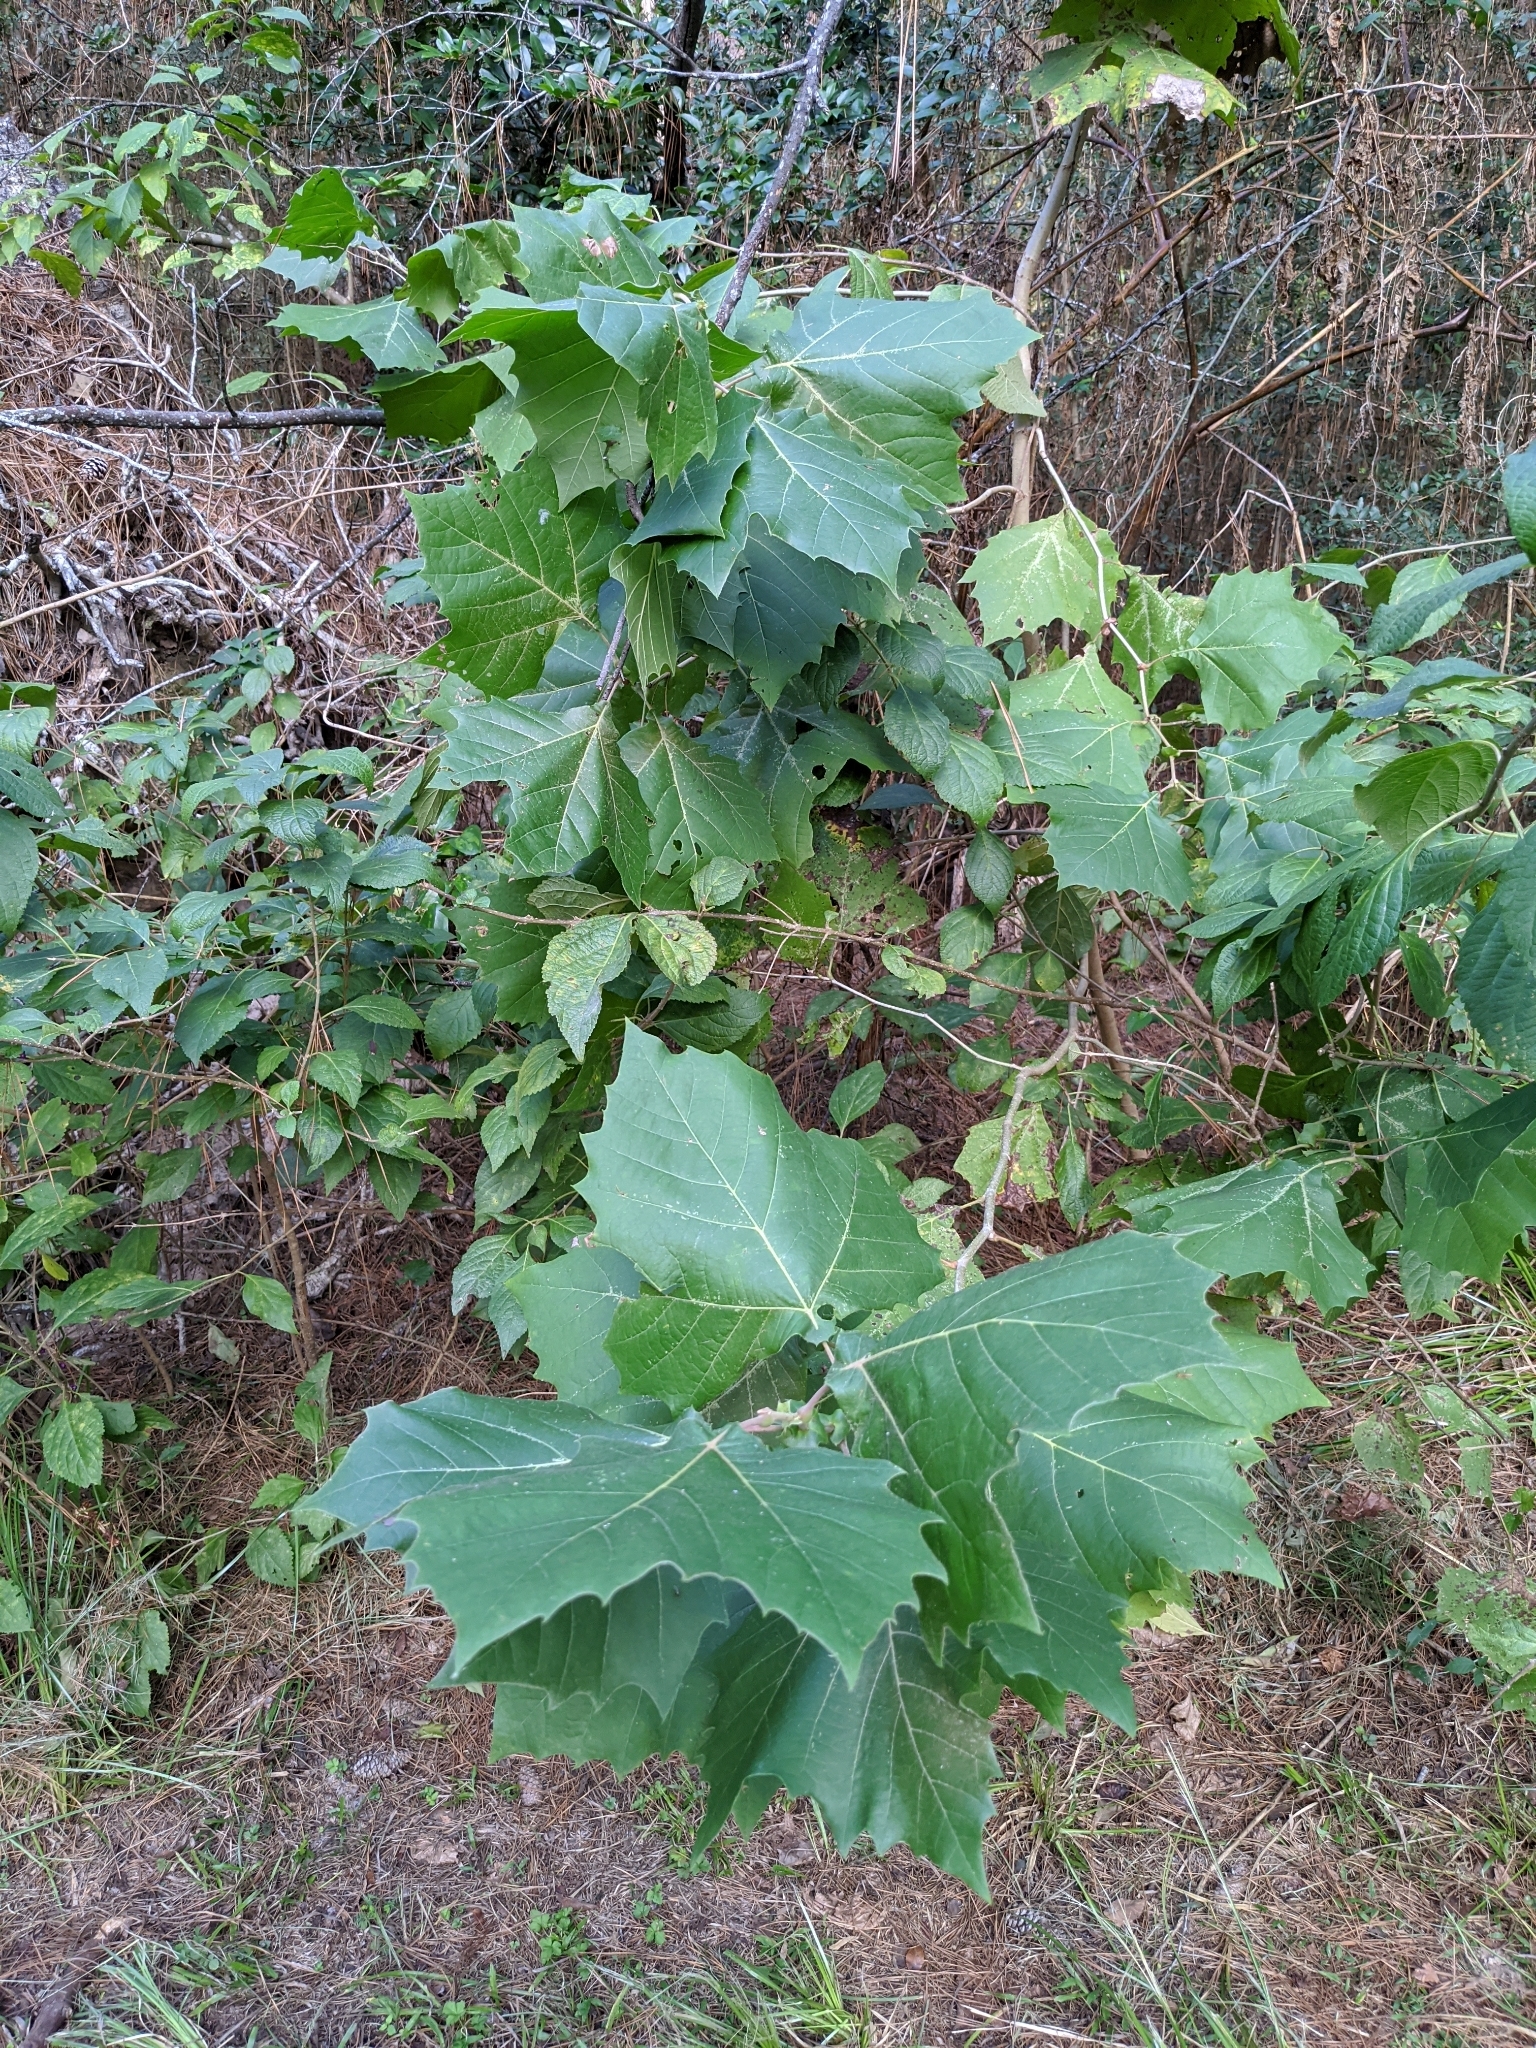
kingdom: Plantae
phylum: Tracheophyta
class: Magnoliopsida
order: Proteales
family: Platanaceae
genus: Platanus
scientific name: Platanus occidentalis
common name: American sycamore
